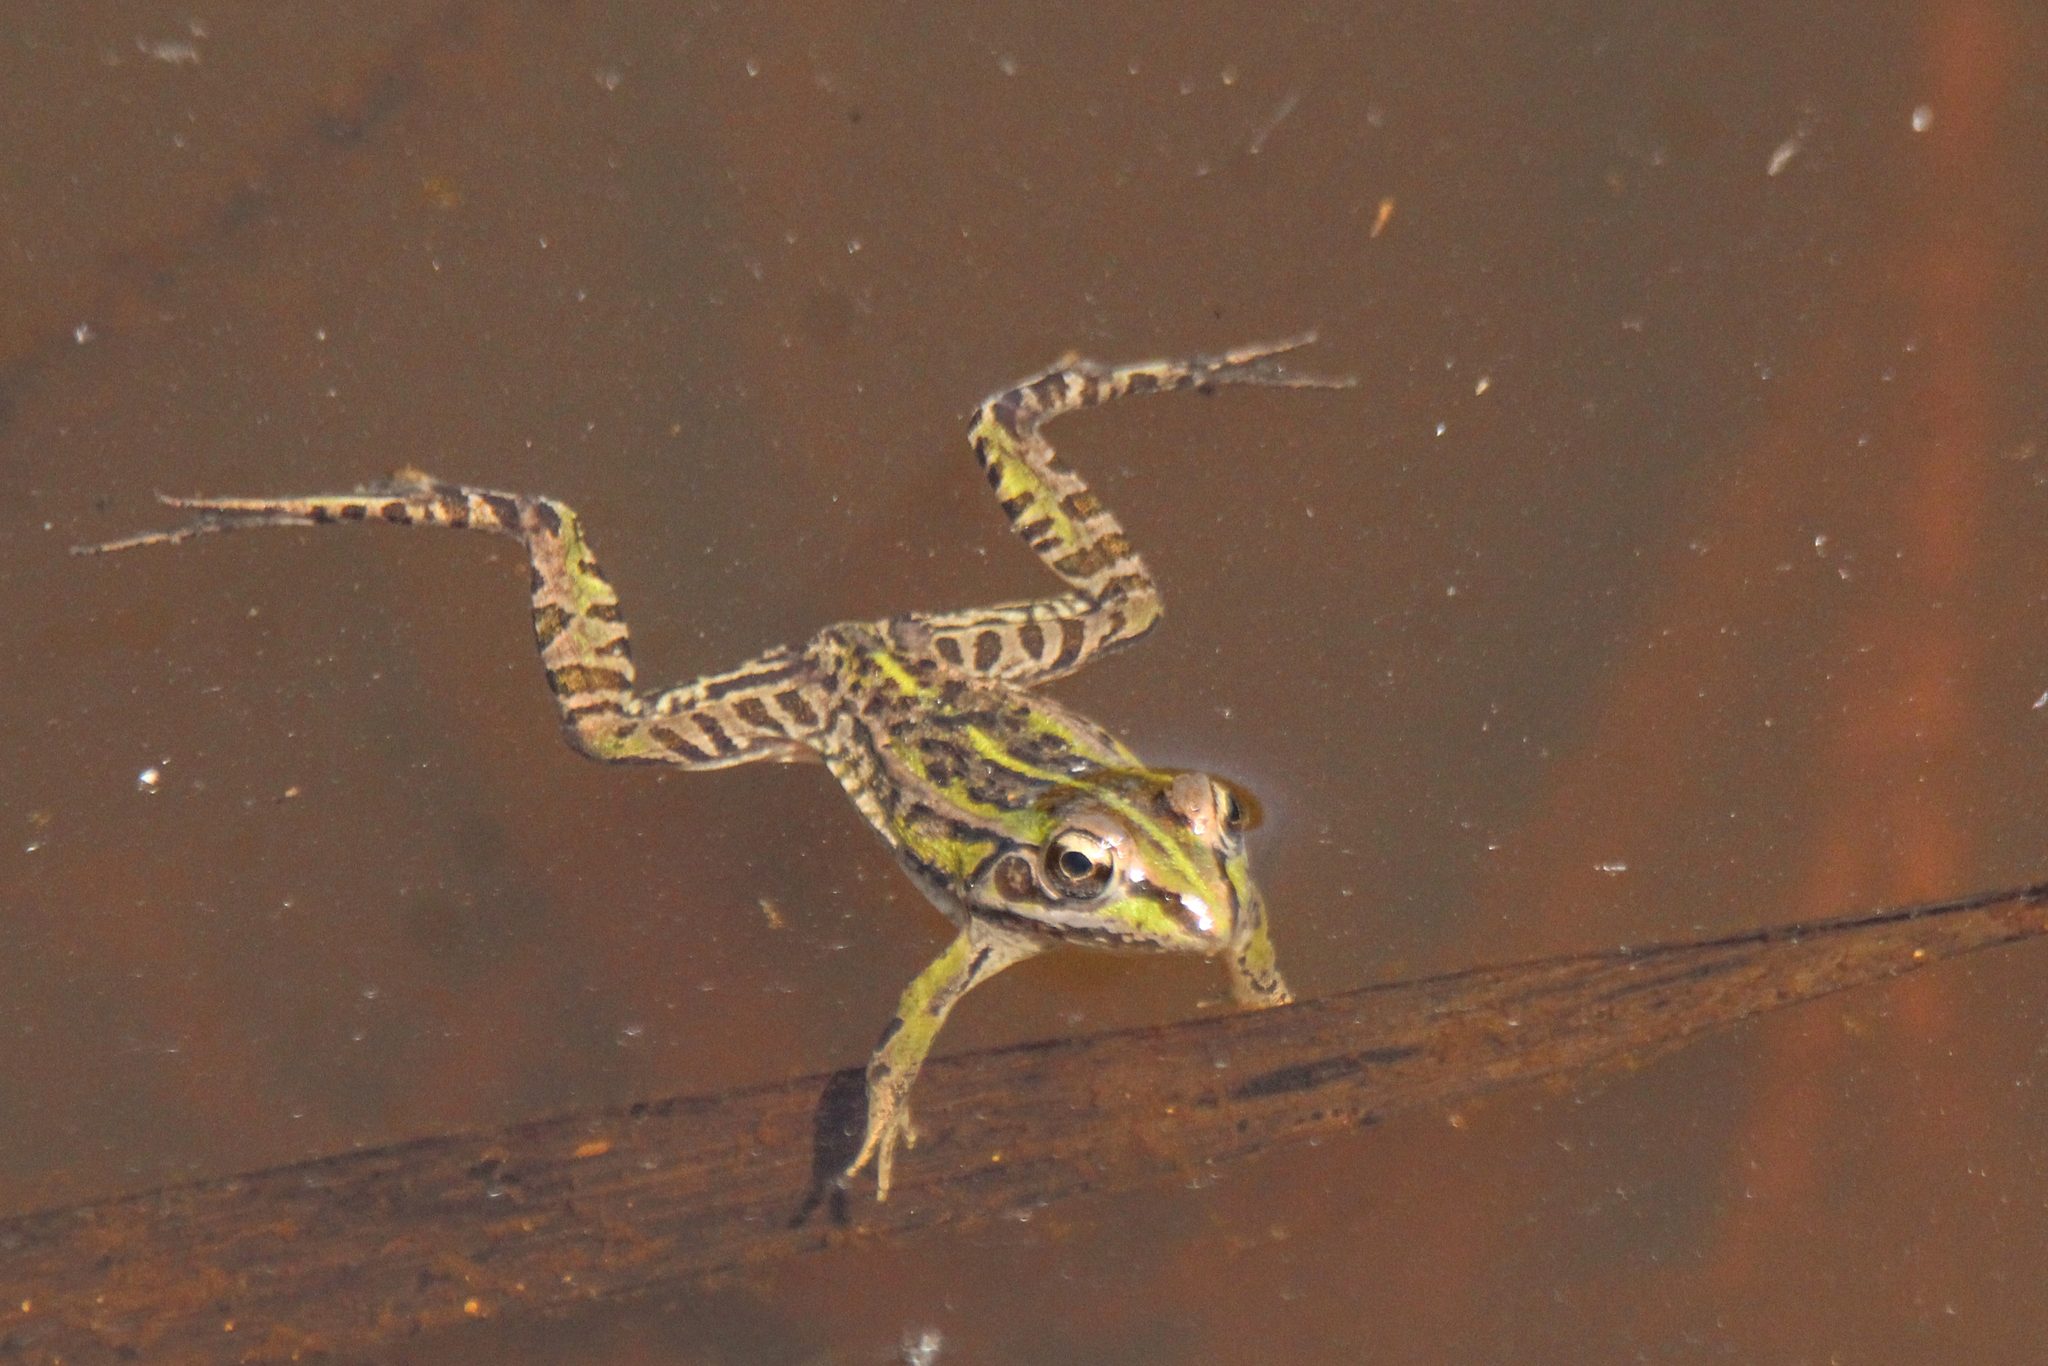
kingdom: Animalia
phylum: Chordata
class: Amphibia
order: Anura
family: Ranidae
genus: Pelophylax
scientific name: Pelophylax nigromaculatus
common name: Black-spotted pond frog
